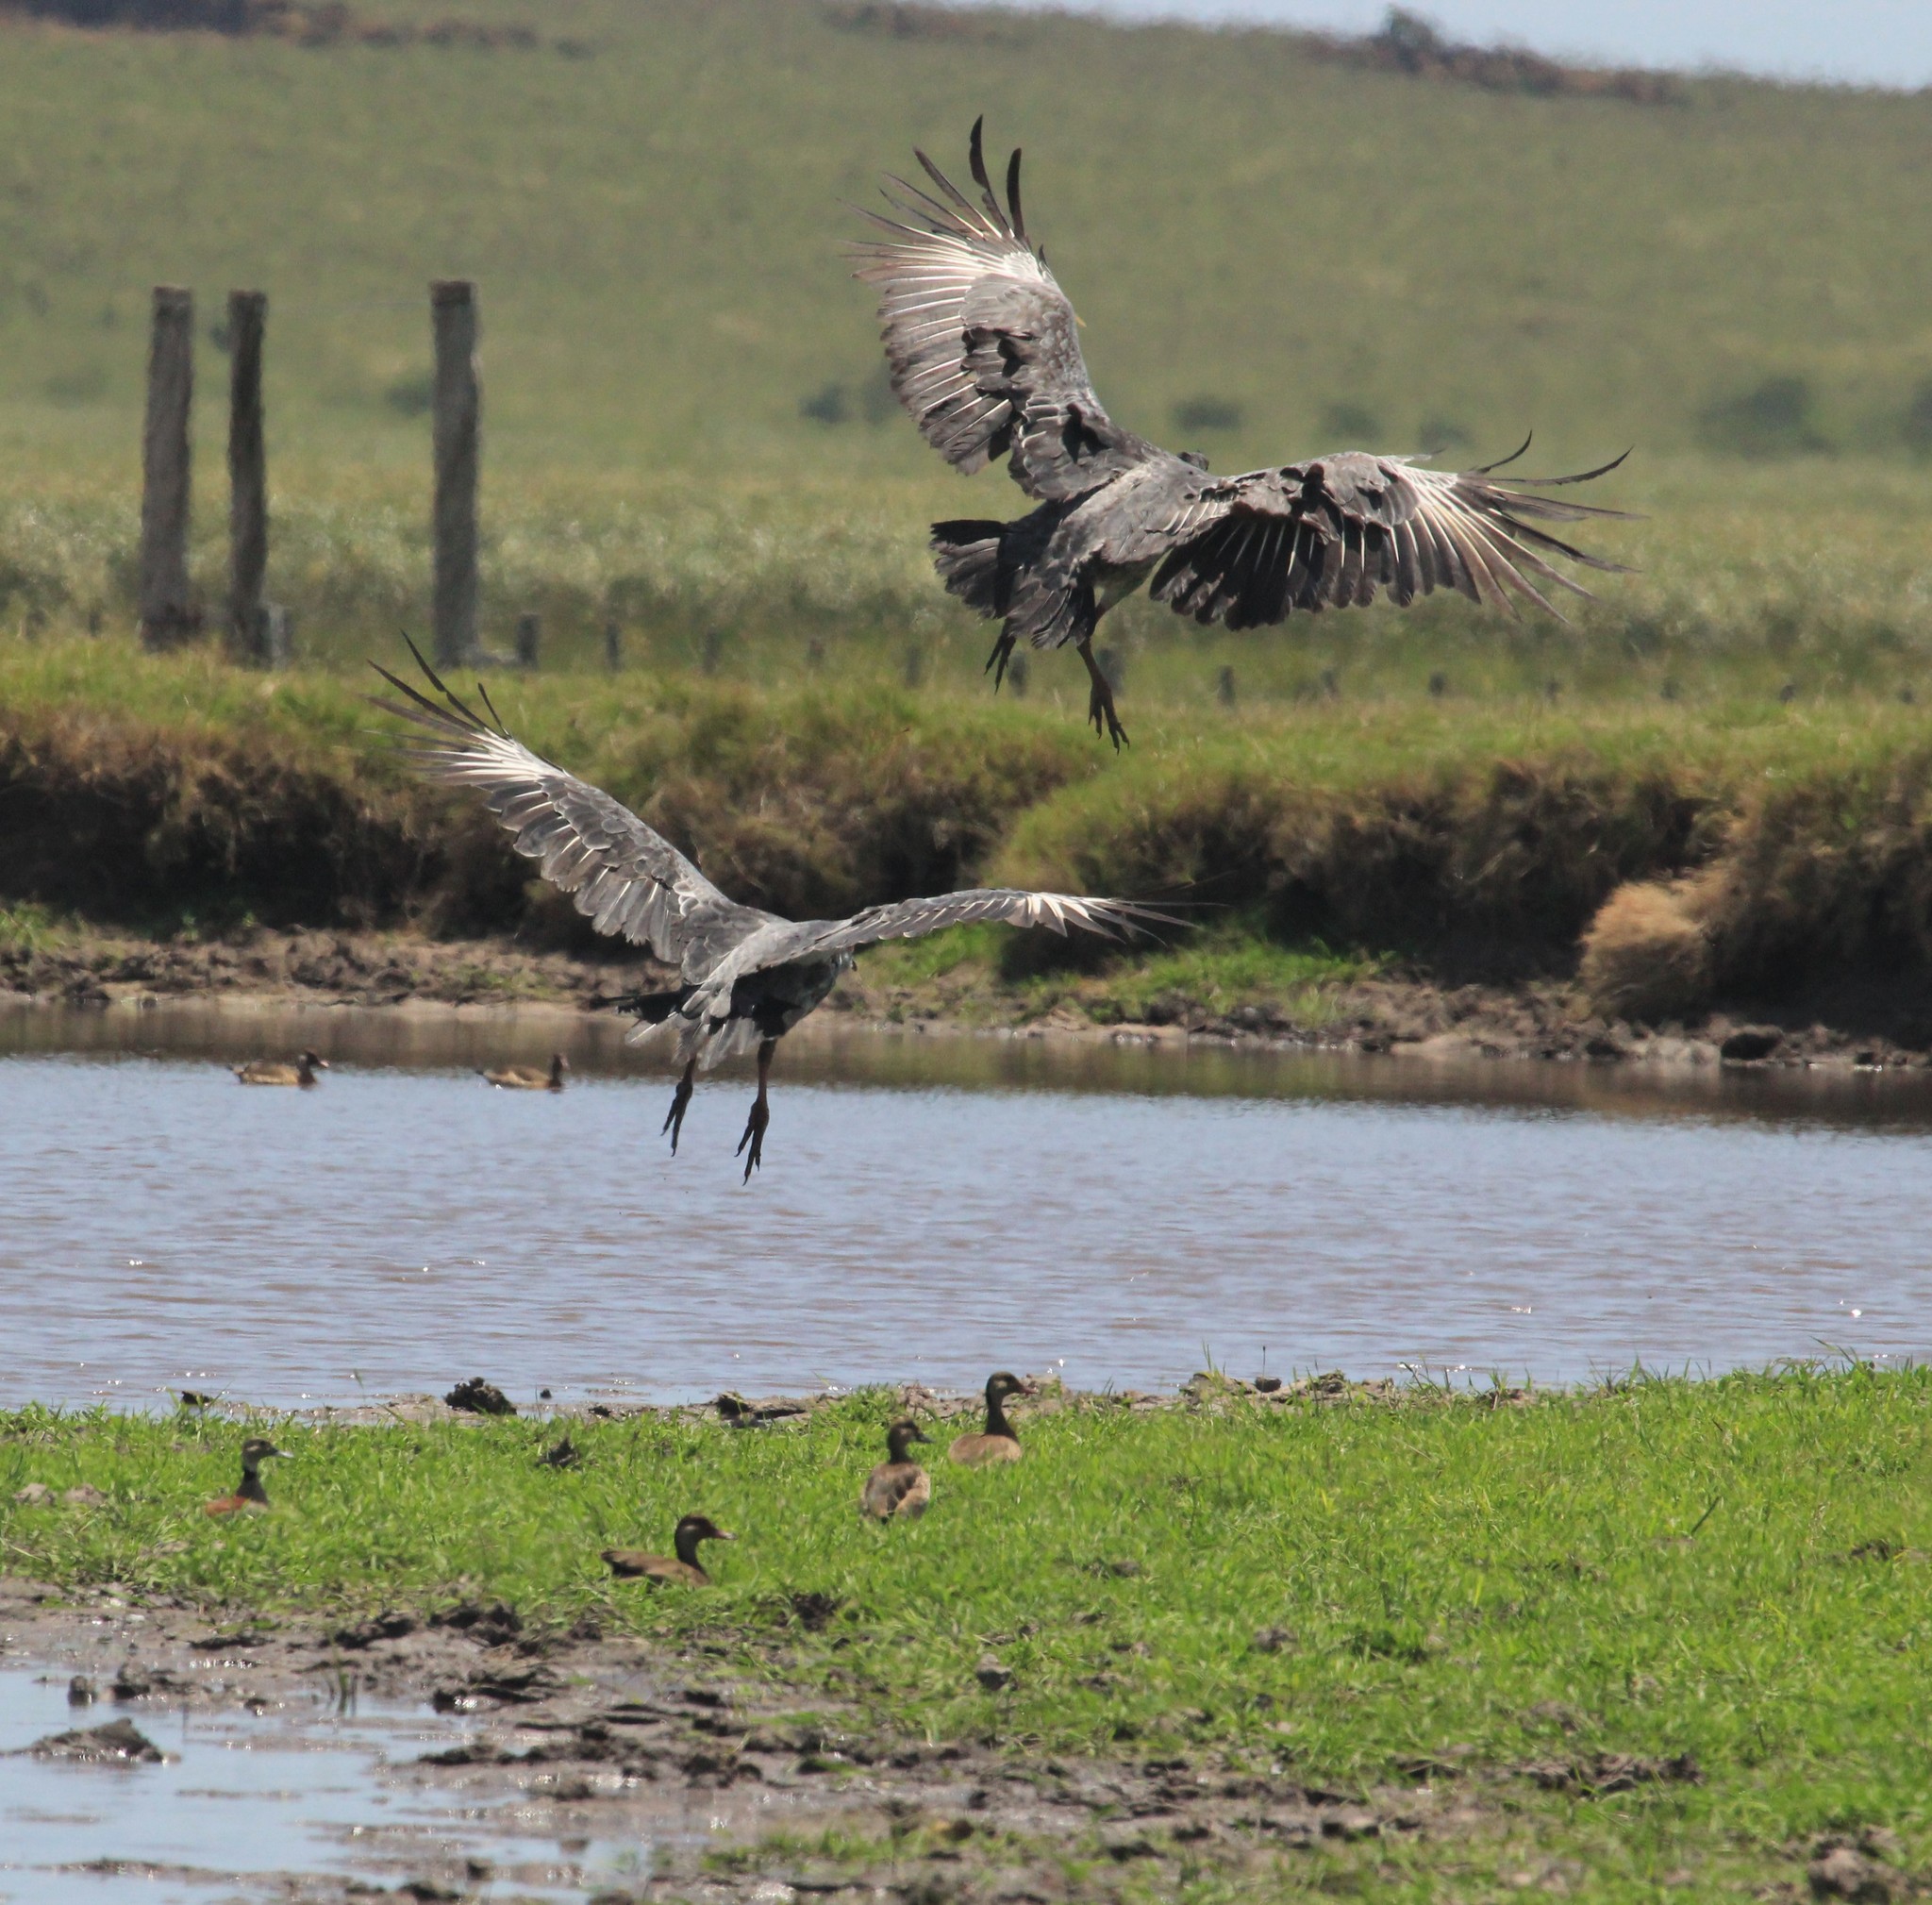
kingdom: Animalia
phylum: Chordata
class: Aves
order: Anseriformes
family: Anhimidae
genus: Chauna
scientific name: Chauna torquata
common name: Southern screamer
